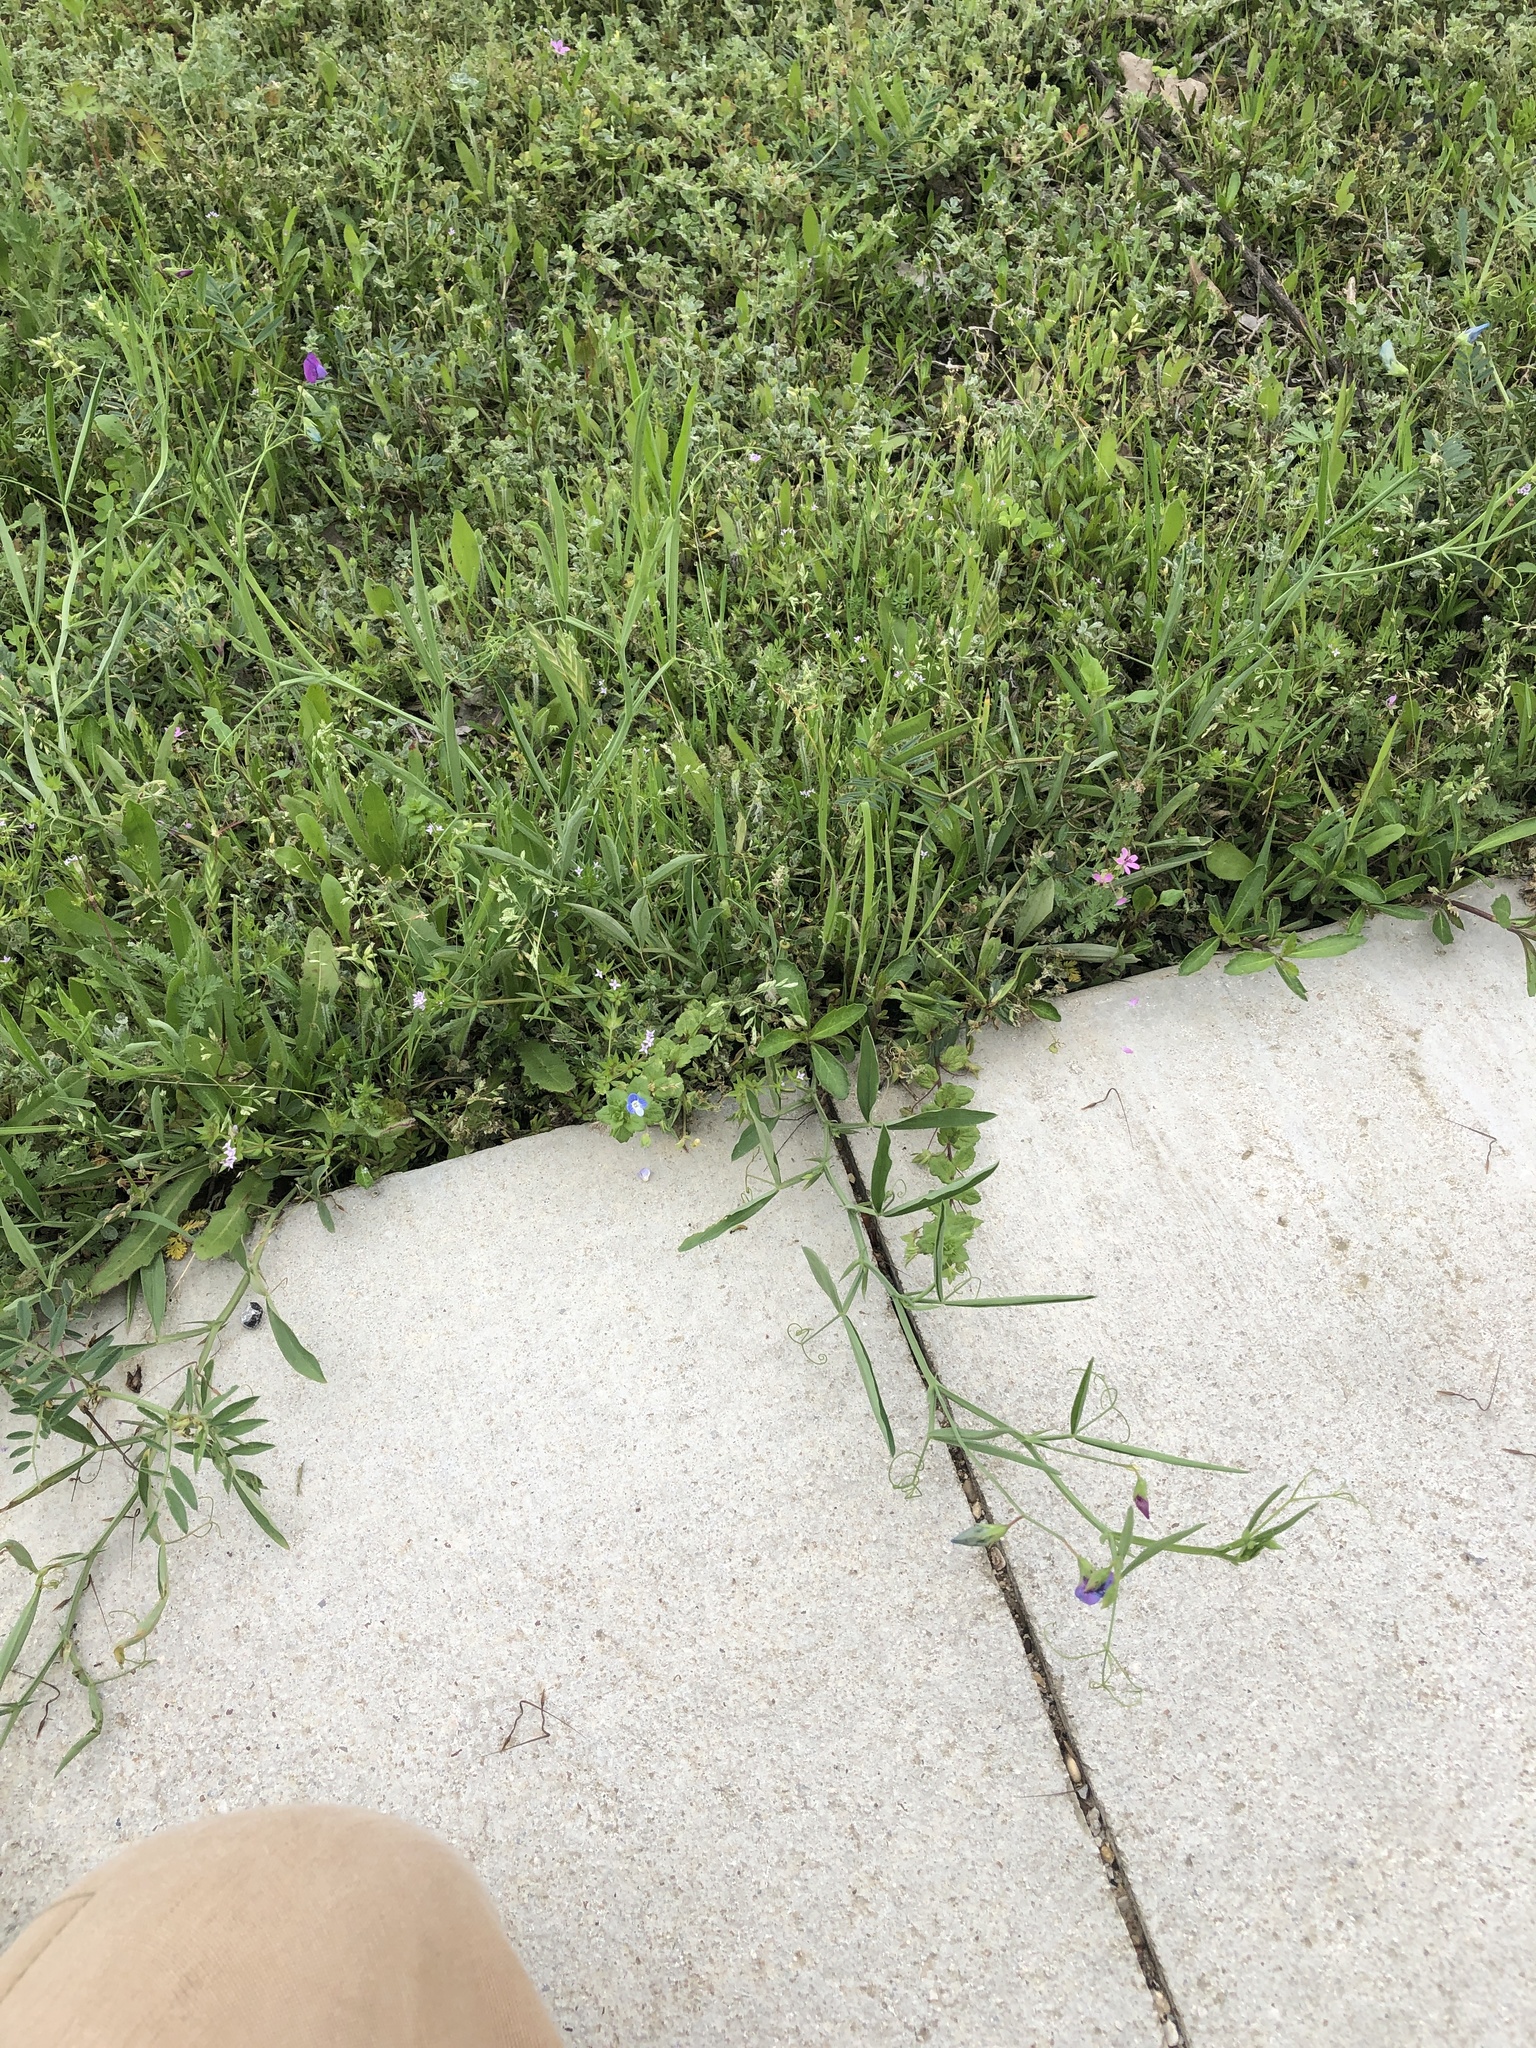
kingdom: Plantae
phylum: Tracheophyta
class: Magnoliopsida
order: Fabales
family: Fabaceae
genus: Lathyrus
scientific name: Lathyrus hirsutus
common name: Hairy vetchling
